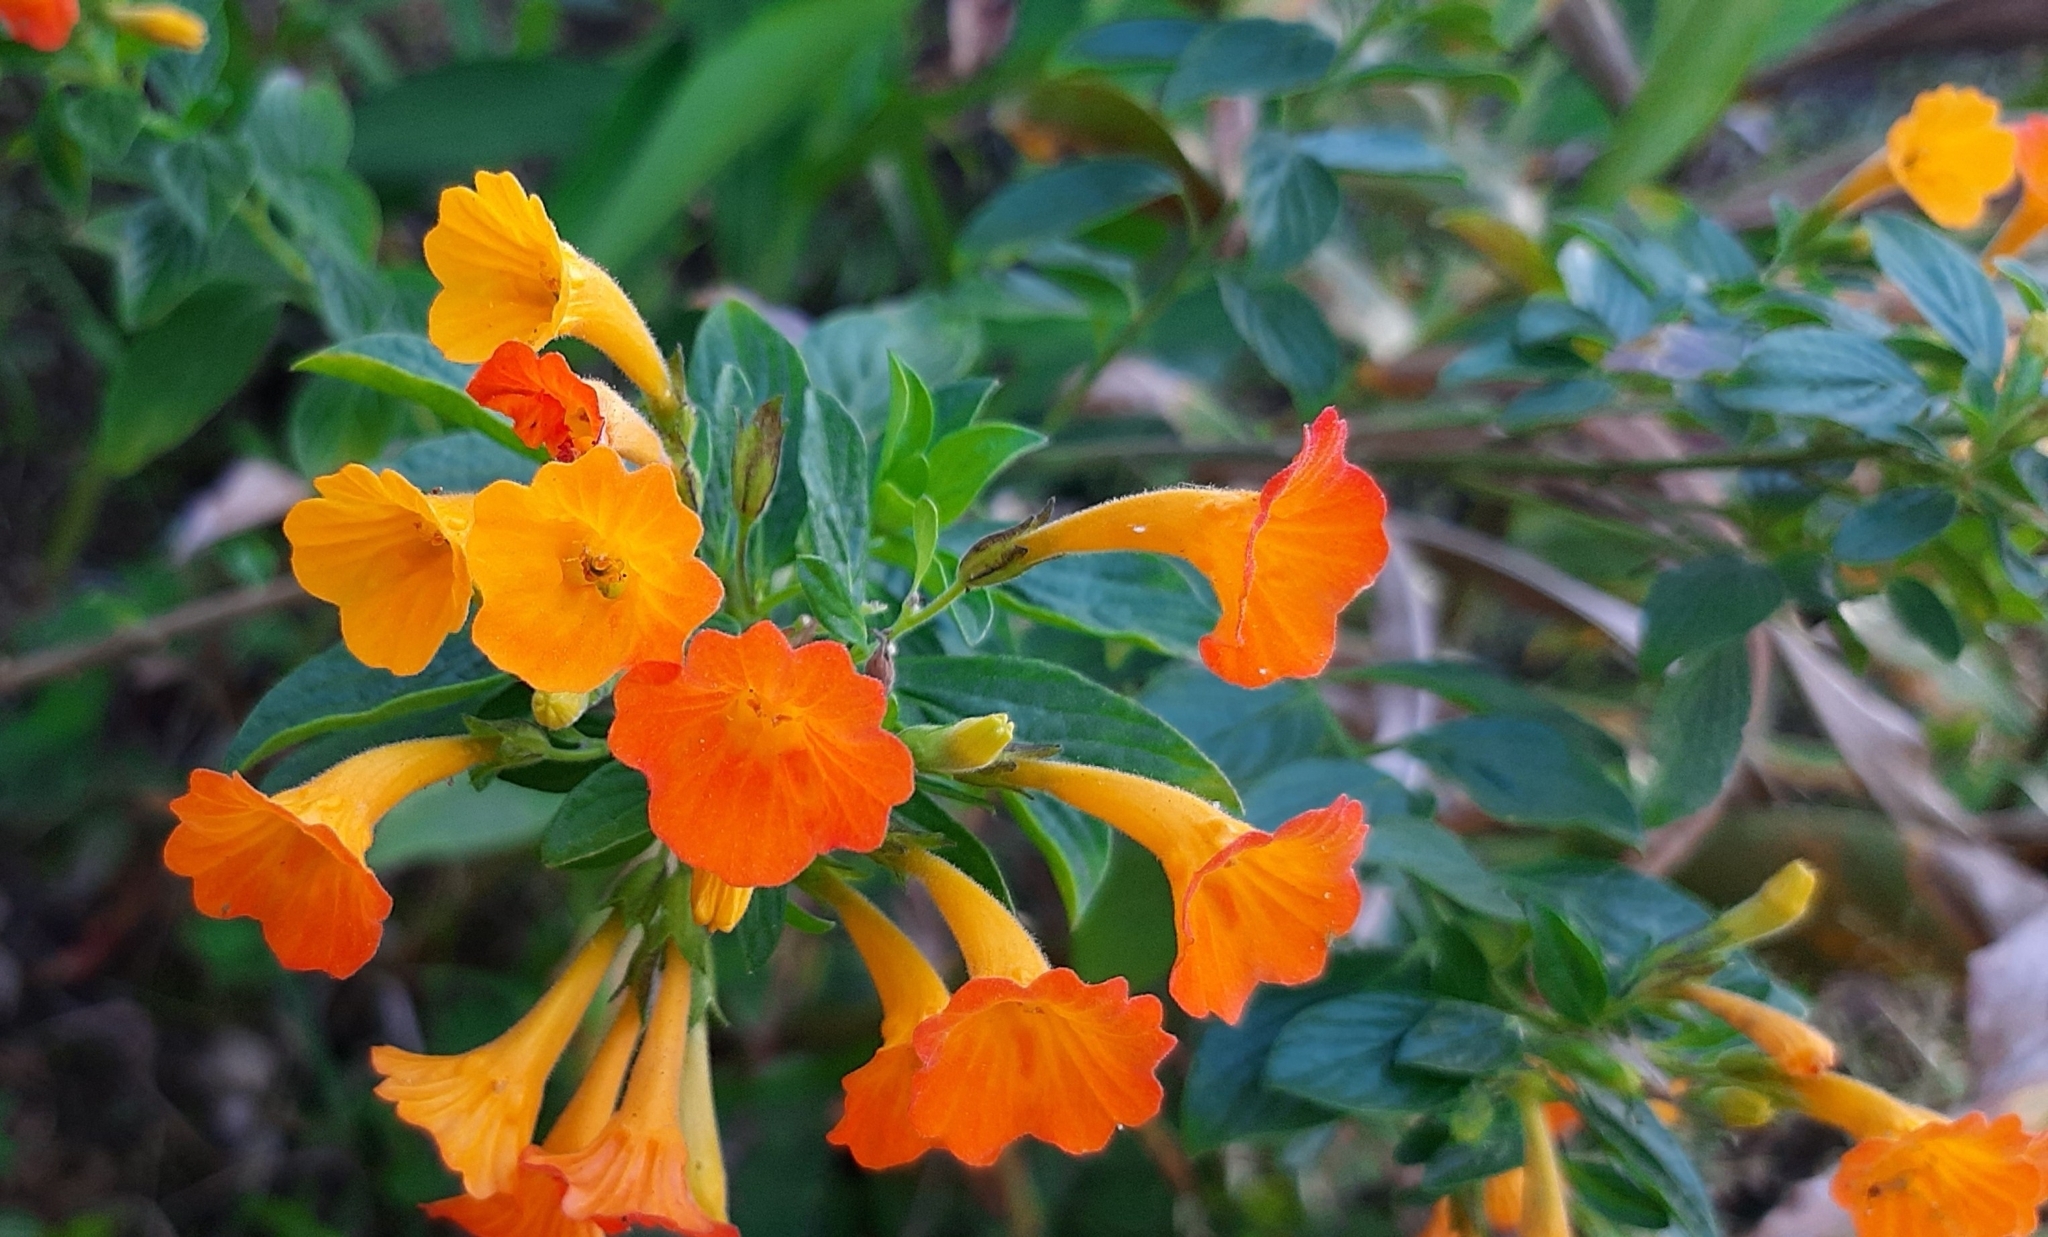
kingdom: Plantae
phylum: Tracheophyta
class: Magnoliopsida
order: Solanales
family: Solanaceae
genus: Streptosolen
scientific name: Streptosolen jamesonii
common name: Marmalade bush
